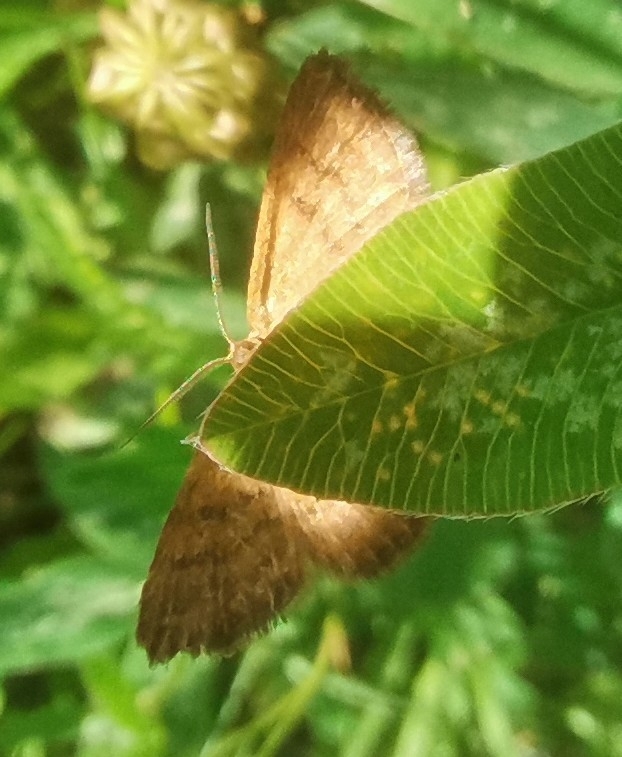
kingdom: Animalia
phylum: Arthropoda
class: Insecta
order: Lepidoptera
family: Geometridae
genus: Macaria
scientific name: Macaria brunneata
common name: Rannoch looper
